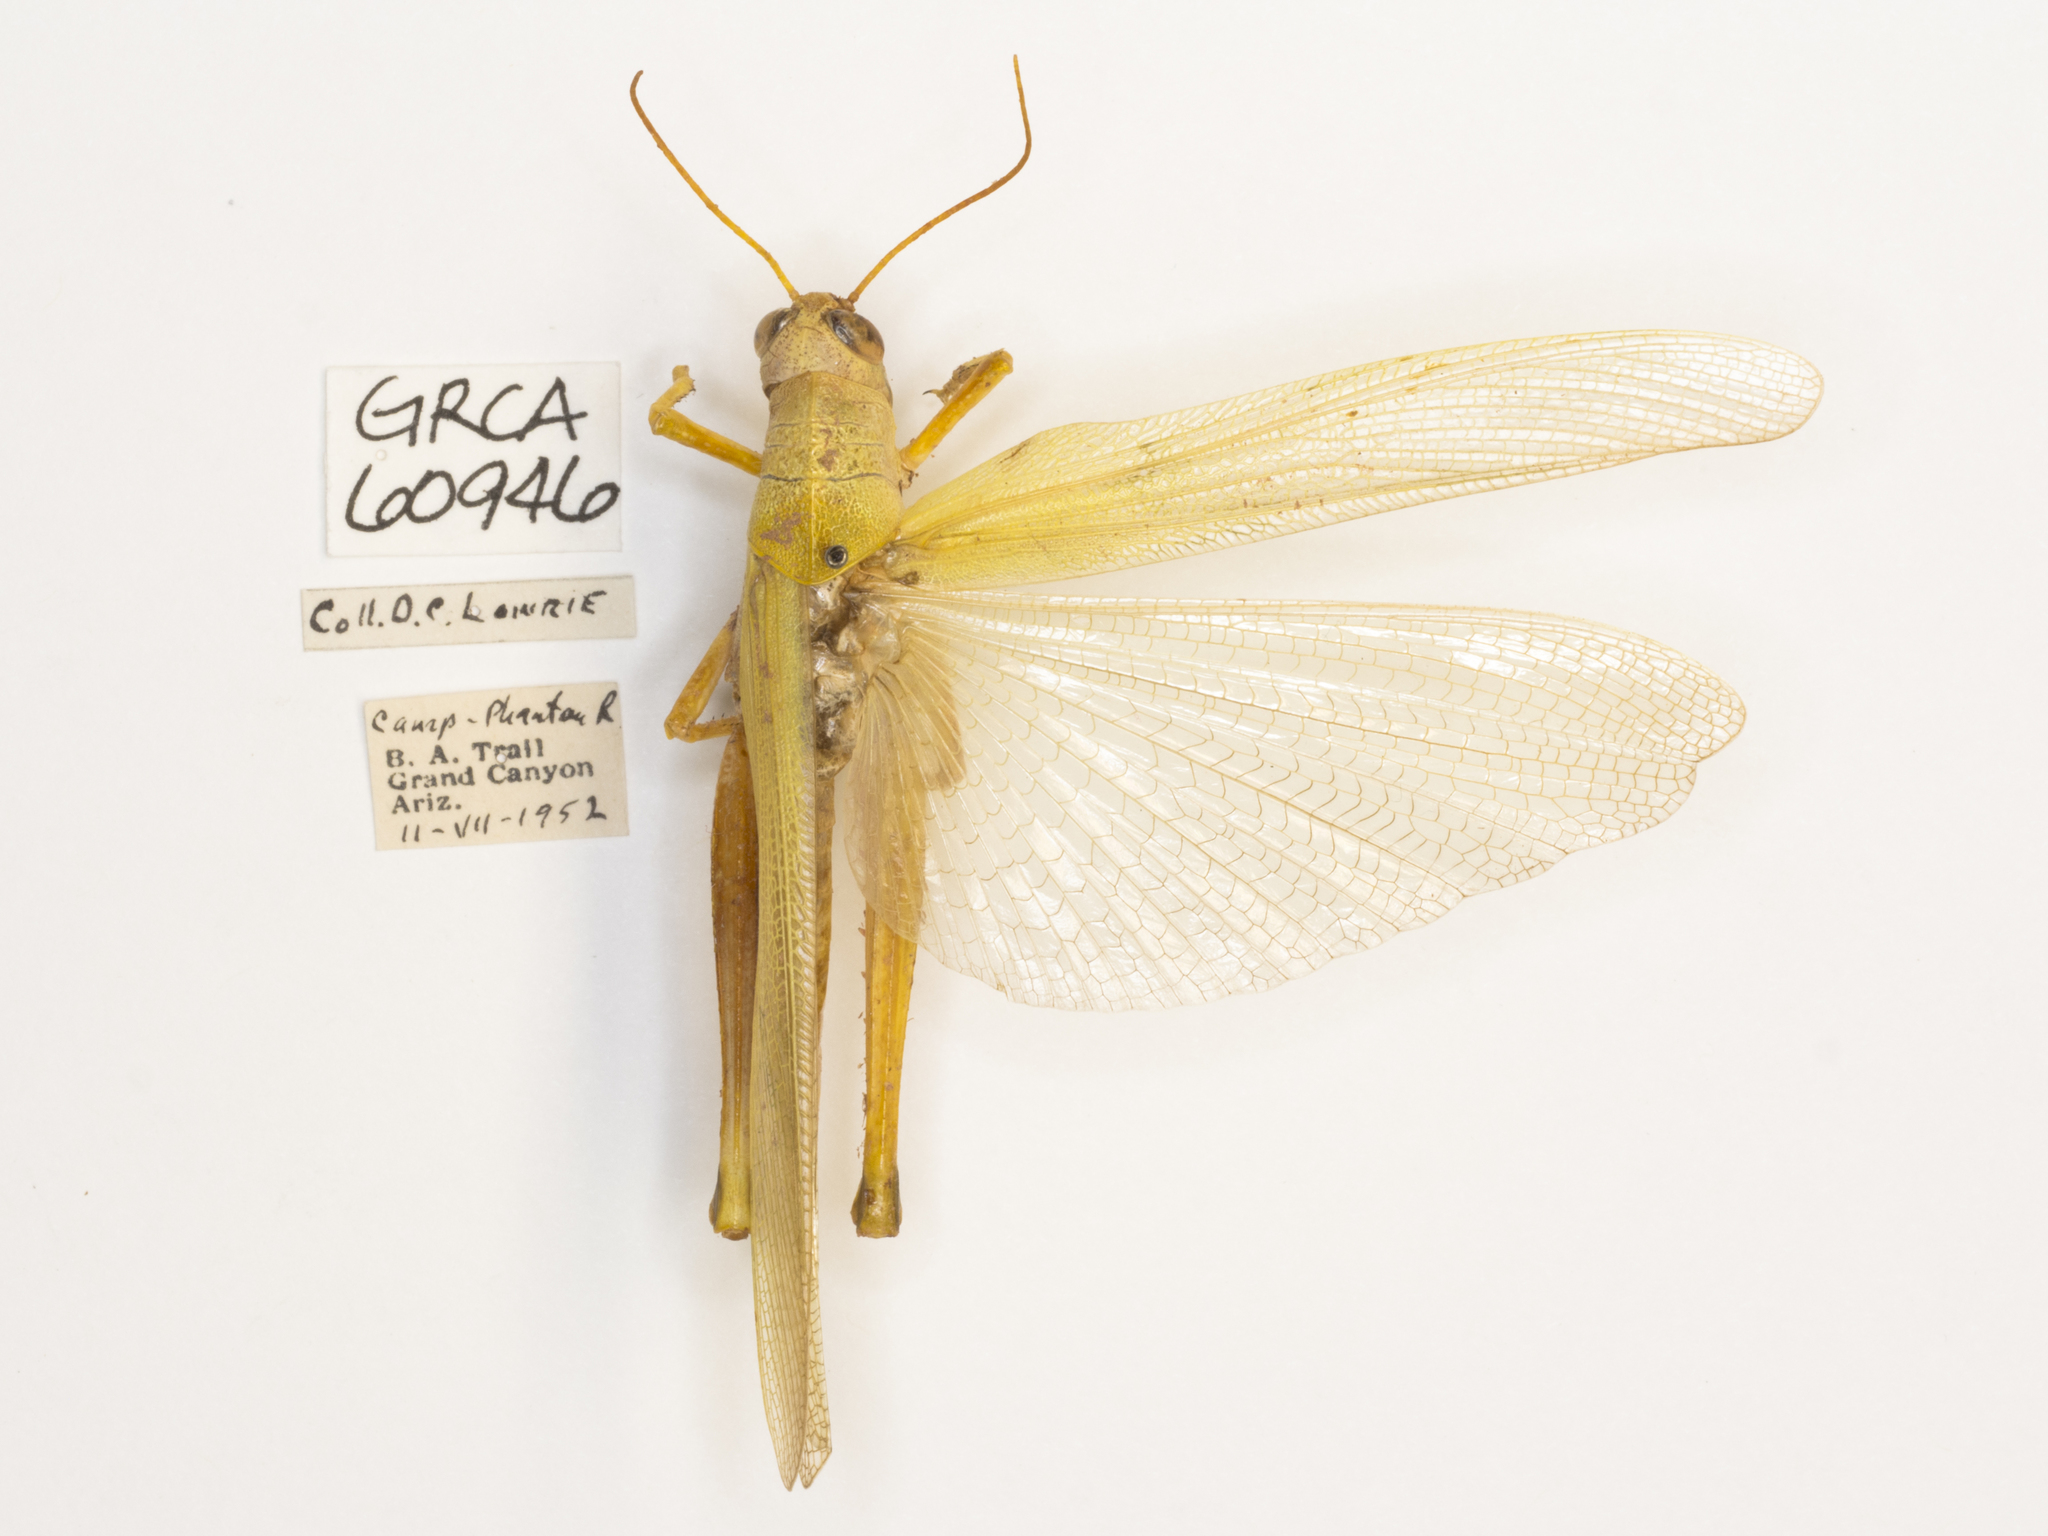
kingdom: Animalia
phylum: Arthropoda
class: Insecta
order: Orthoptera
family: Acrididae
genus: Schistocerca
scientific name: Schistocerca shoshone
